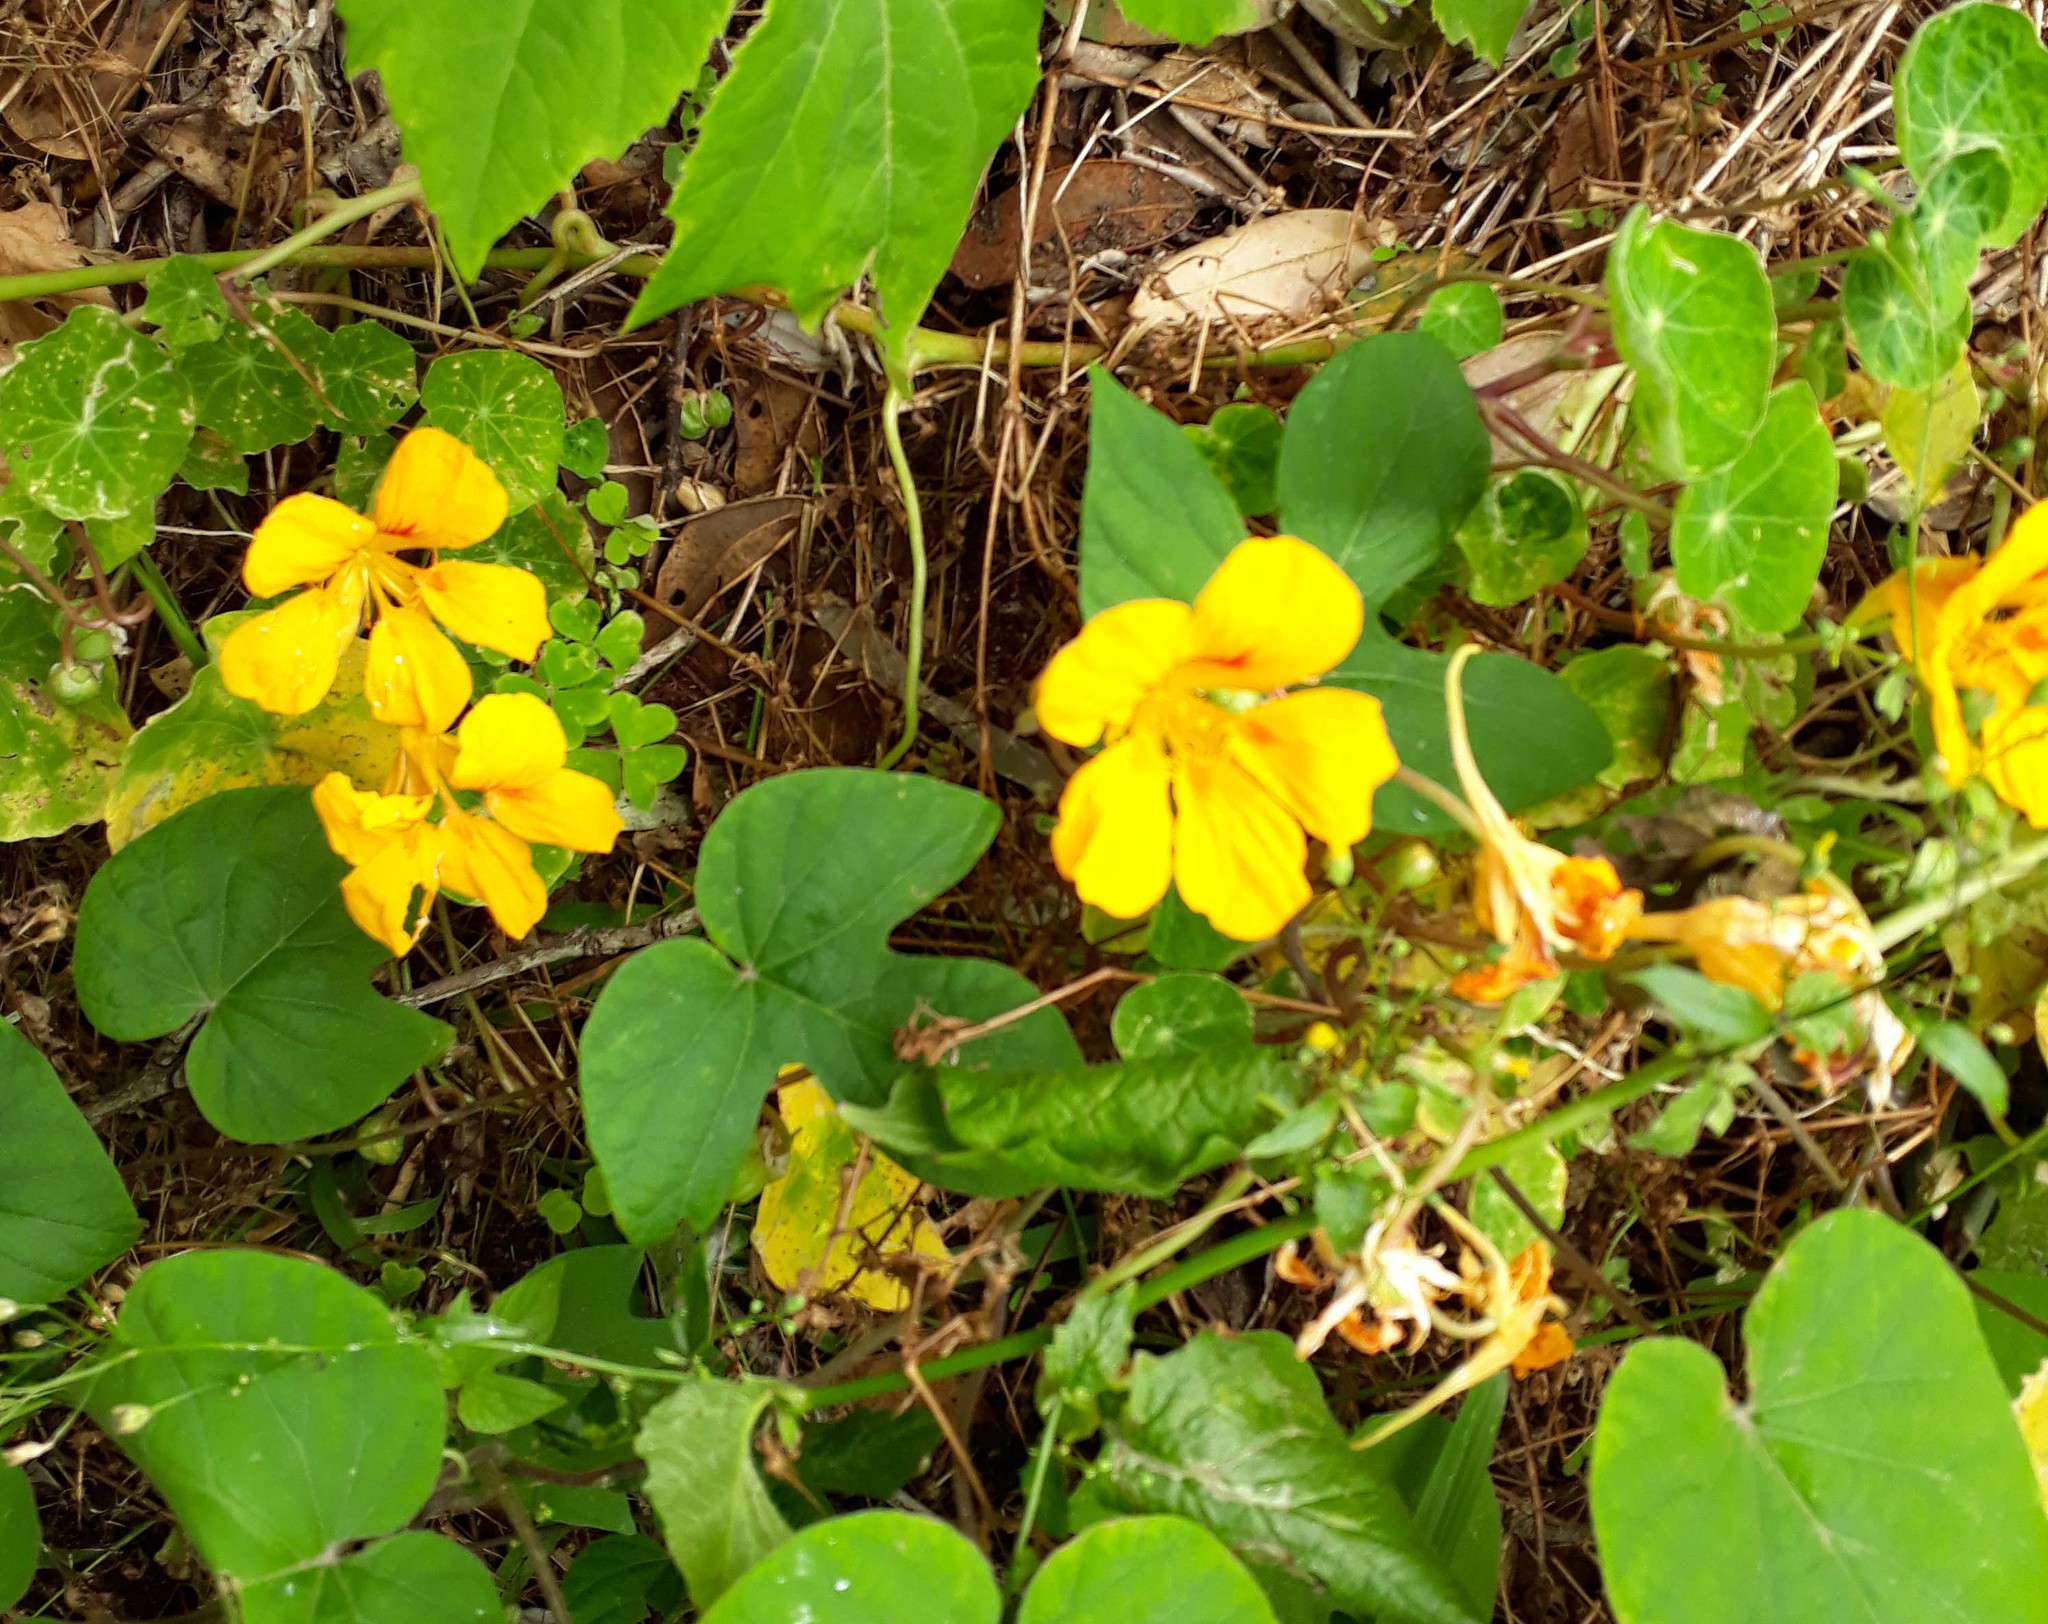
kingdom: Plantae
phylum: Tracheophyta
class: Magnoliopsida
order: Brassicales
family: Tropaeolaceae
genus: Tropaeolum
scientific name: Tropaeolum majus
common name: Nasturtium
